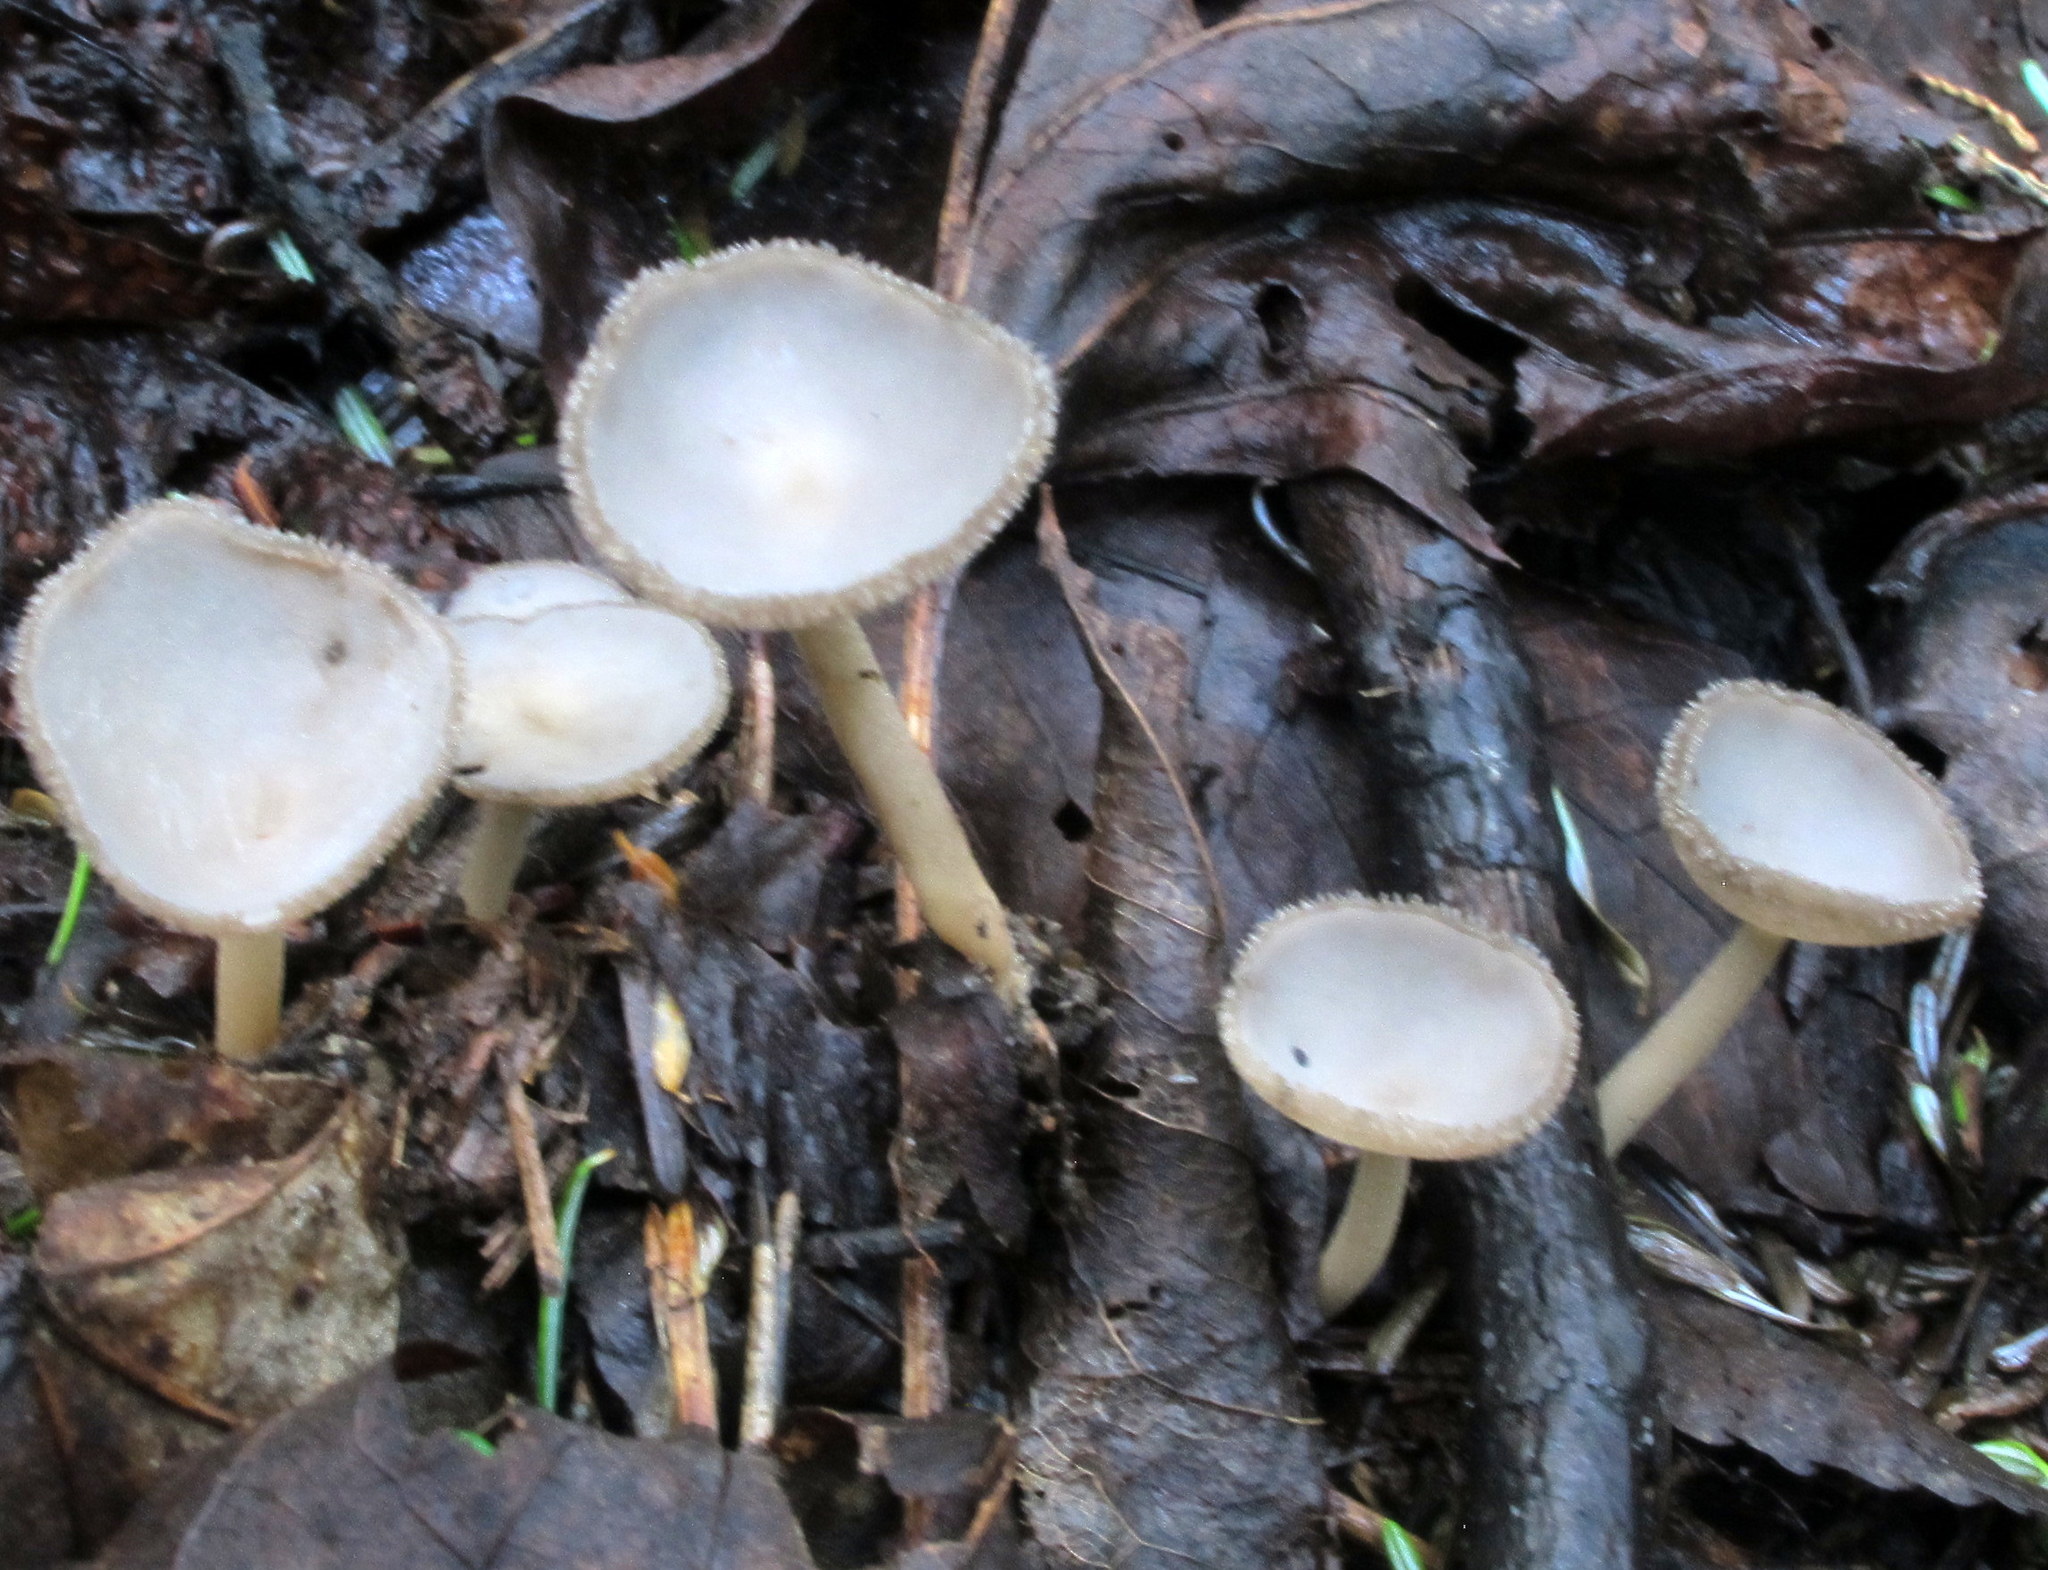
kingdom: Fungi
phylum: Ascomycota
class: Pezizomycetes
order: Pezizales
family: Helvellaceae
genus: Helvella
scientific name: Helvella macropus
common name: Felt saddle
